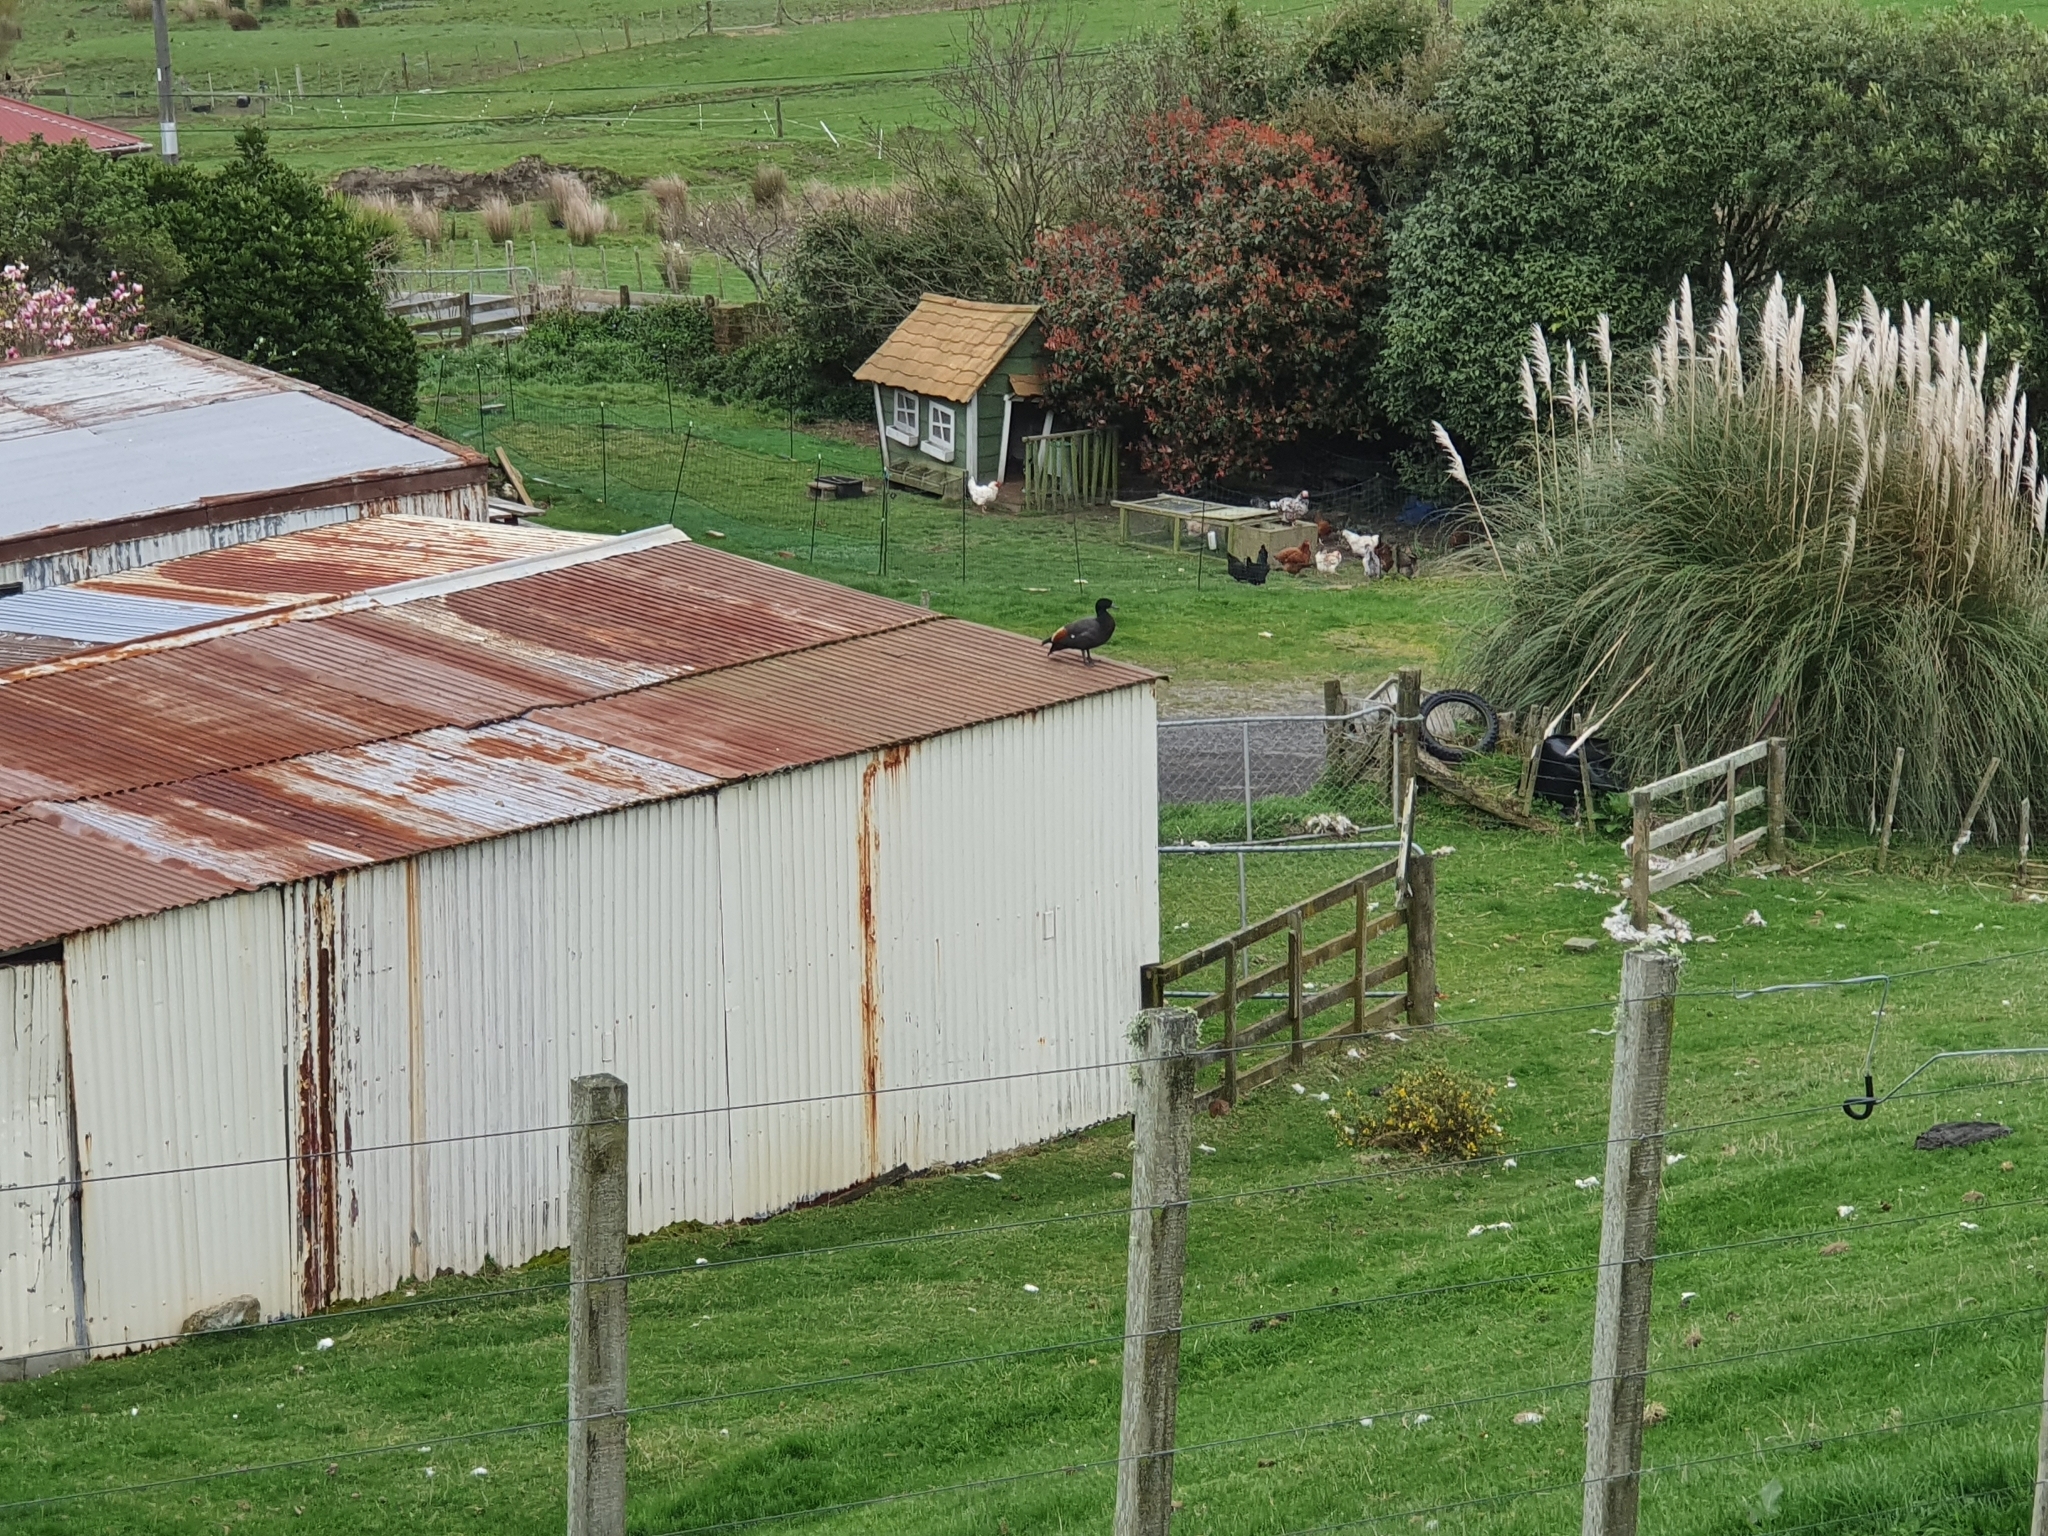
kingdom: Animalia
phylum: Chordata
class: Aves
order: Anseriformes
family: Anatidae
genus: Tadorna
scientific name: Tadorna variegata
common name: Paradise shelduck
